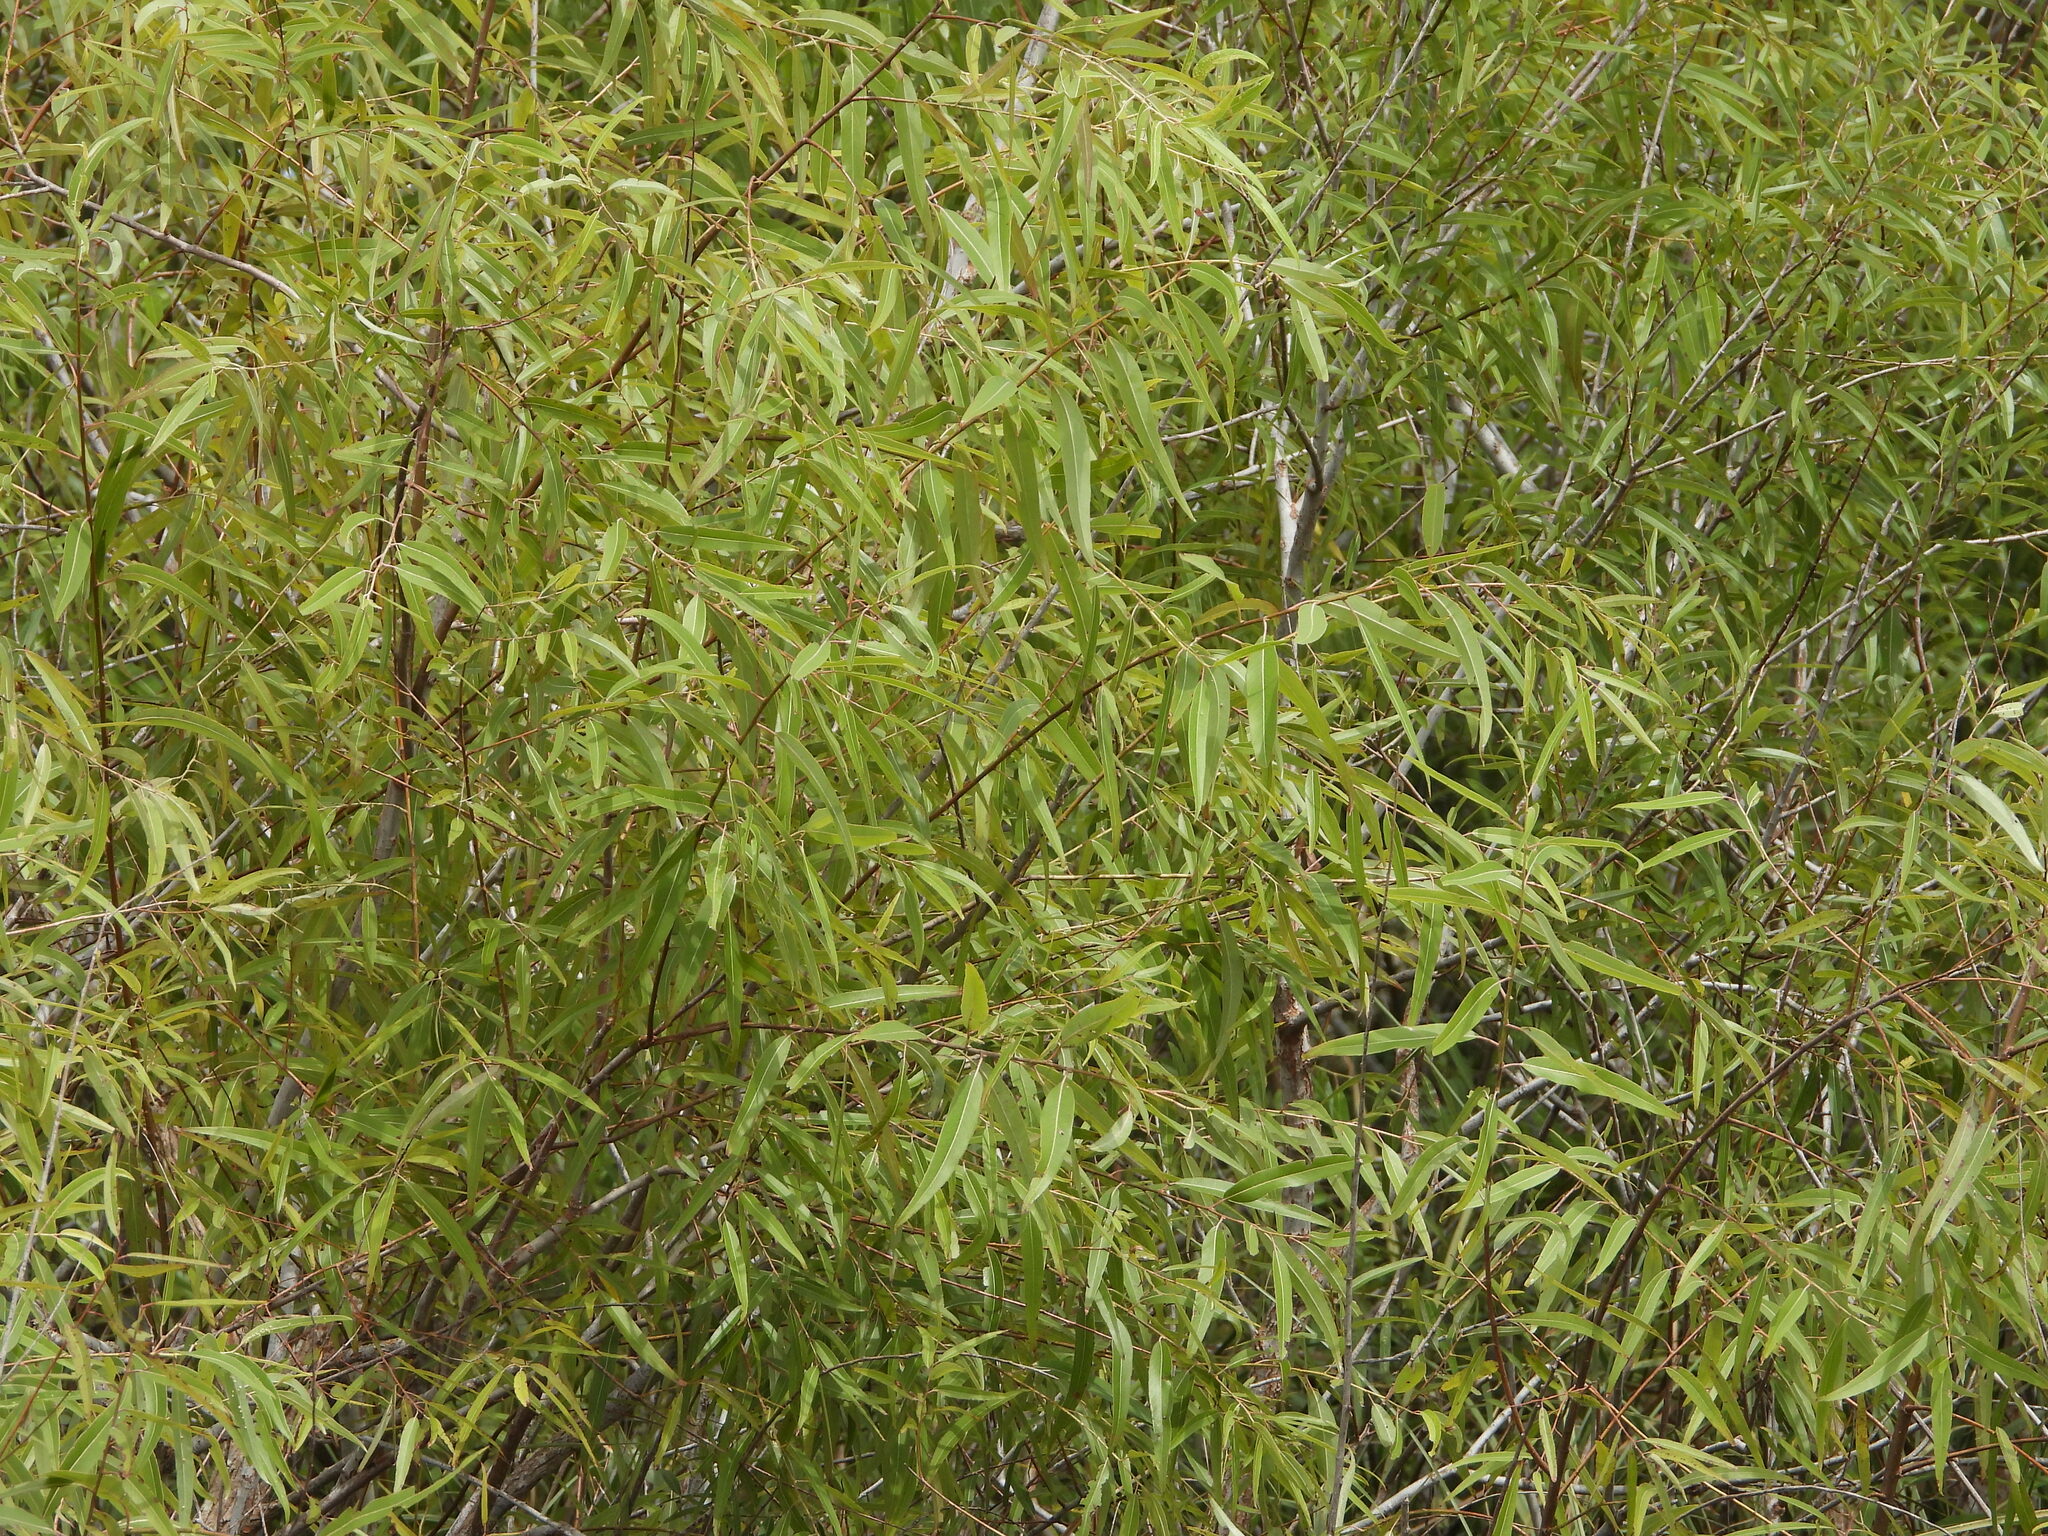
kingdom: Plantae
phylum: Tracheophyta
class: Magnoliopsida
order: Malpighiales
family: Salicaceae
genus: Salix
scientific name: Salix caroliniana
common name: Carolina willow
